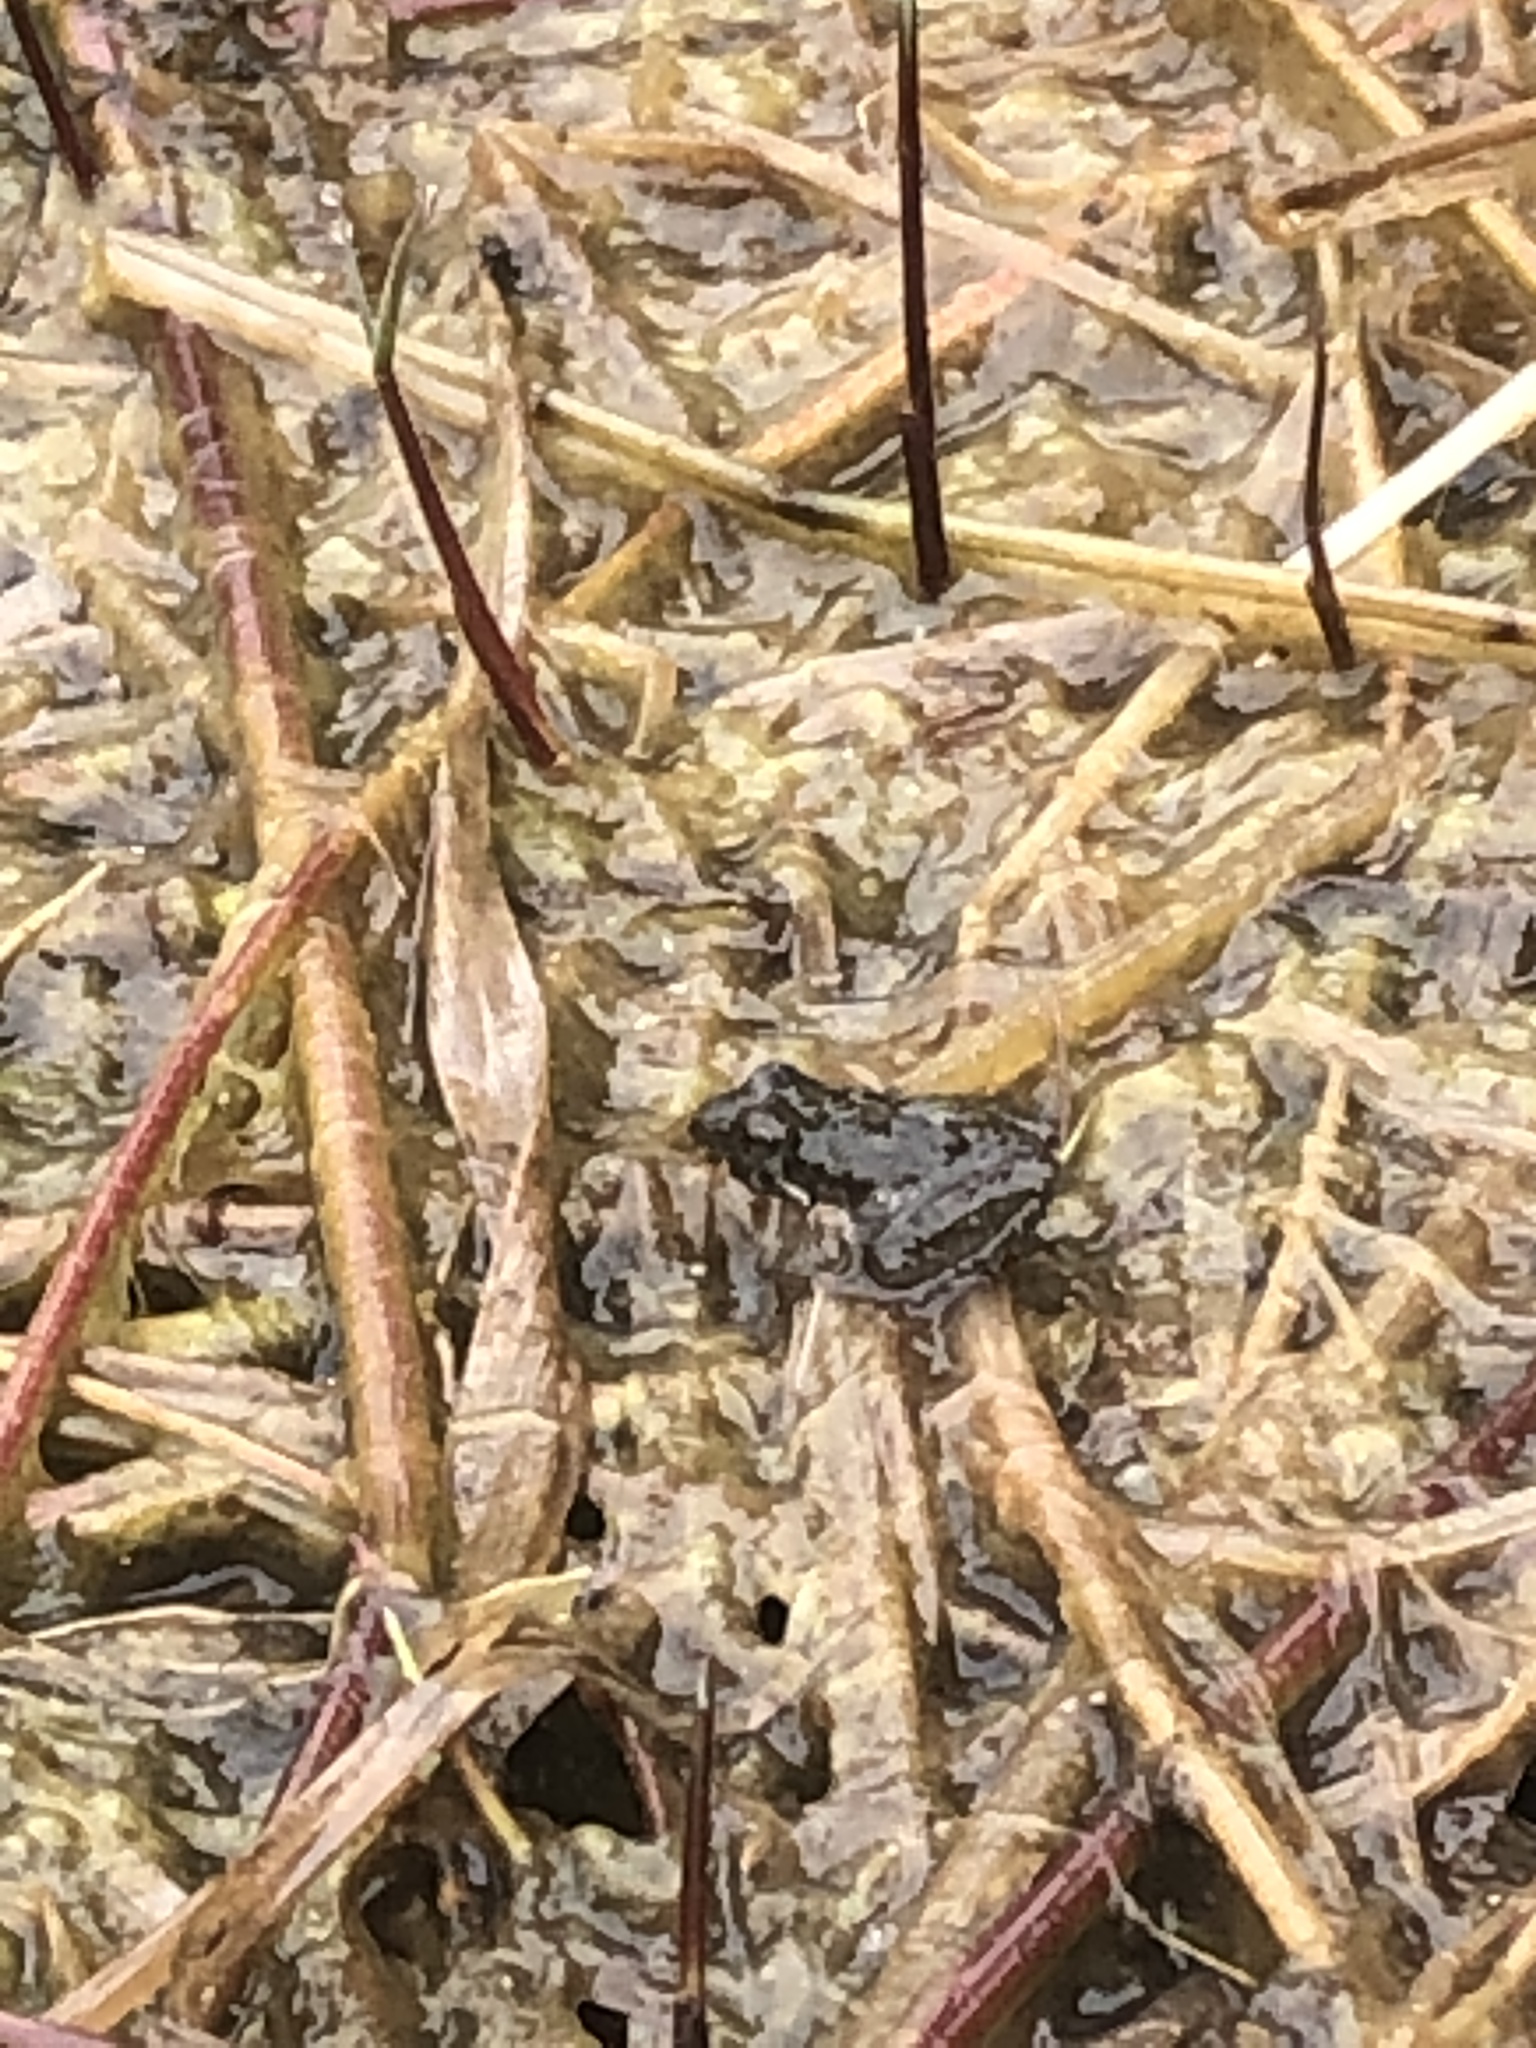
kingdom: Animalia
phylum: Chordata
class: Amphibia
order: Anura
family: Hylidae
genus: Acris
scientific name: Acris crepitans
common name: Northern cricket frog
